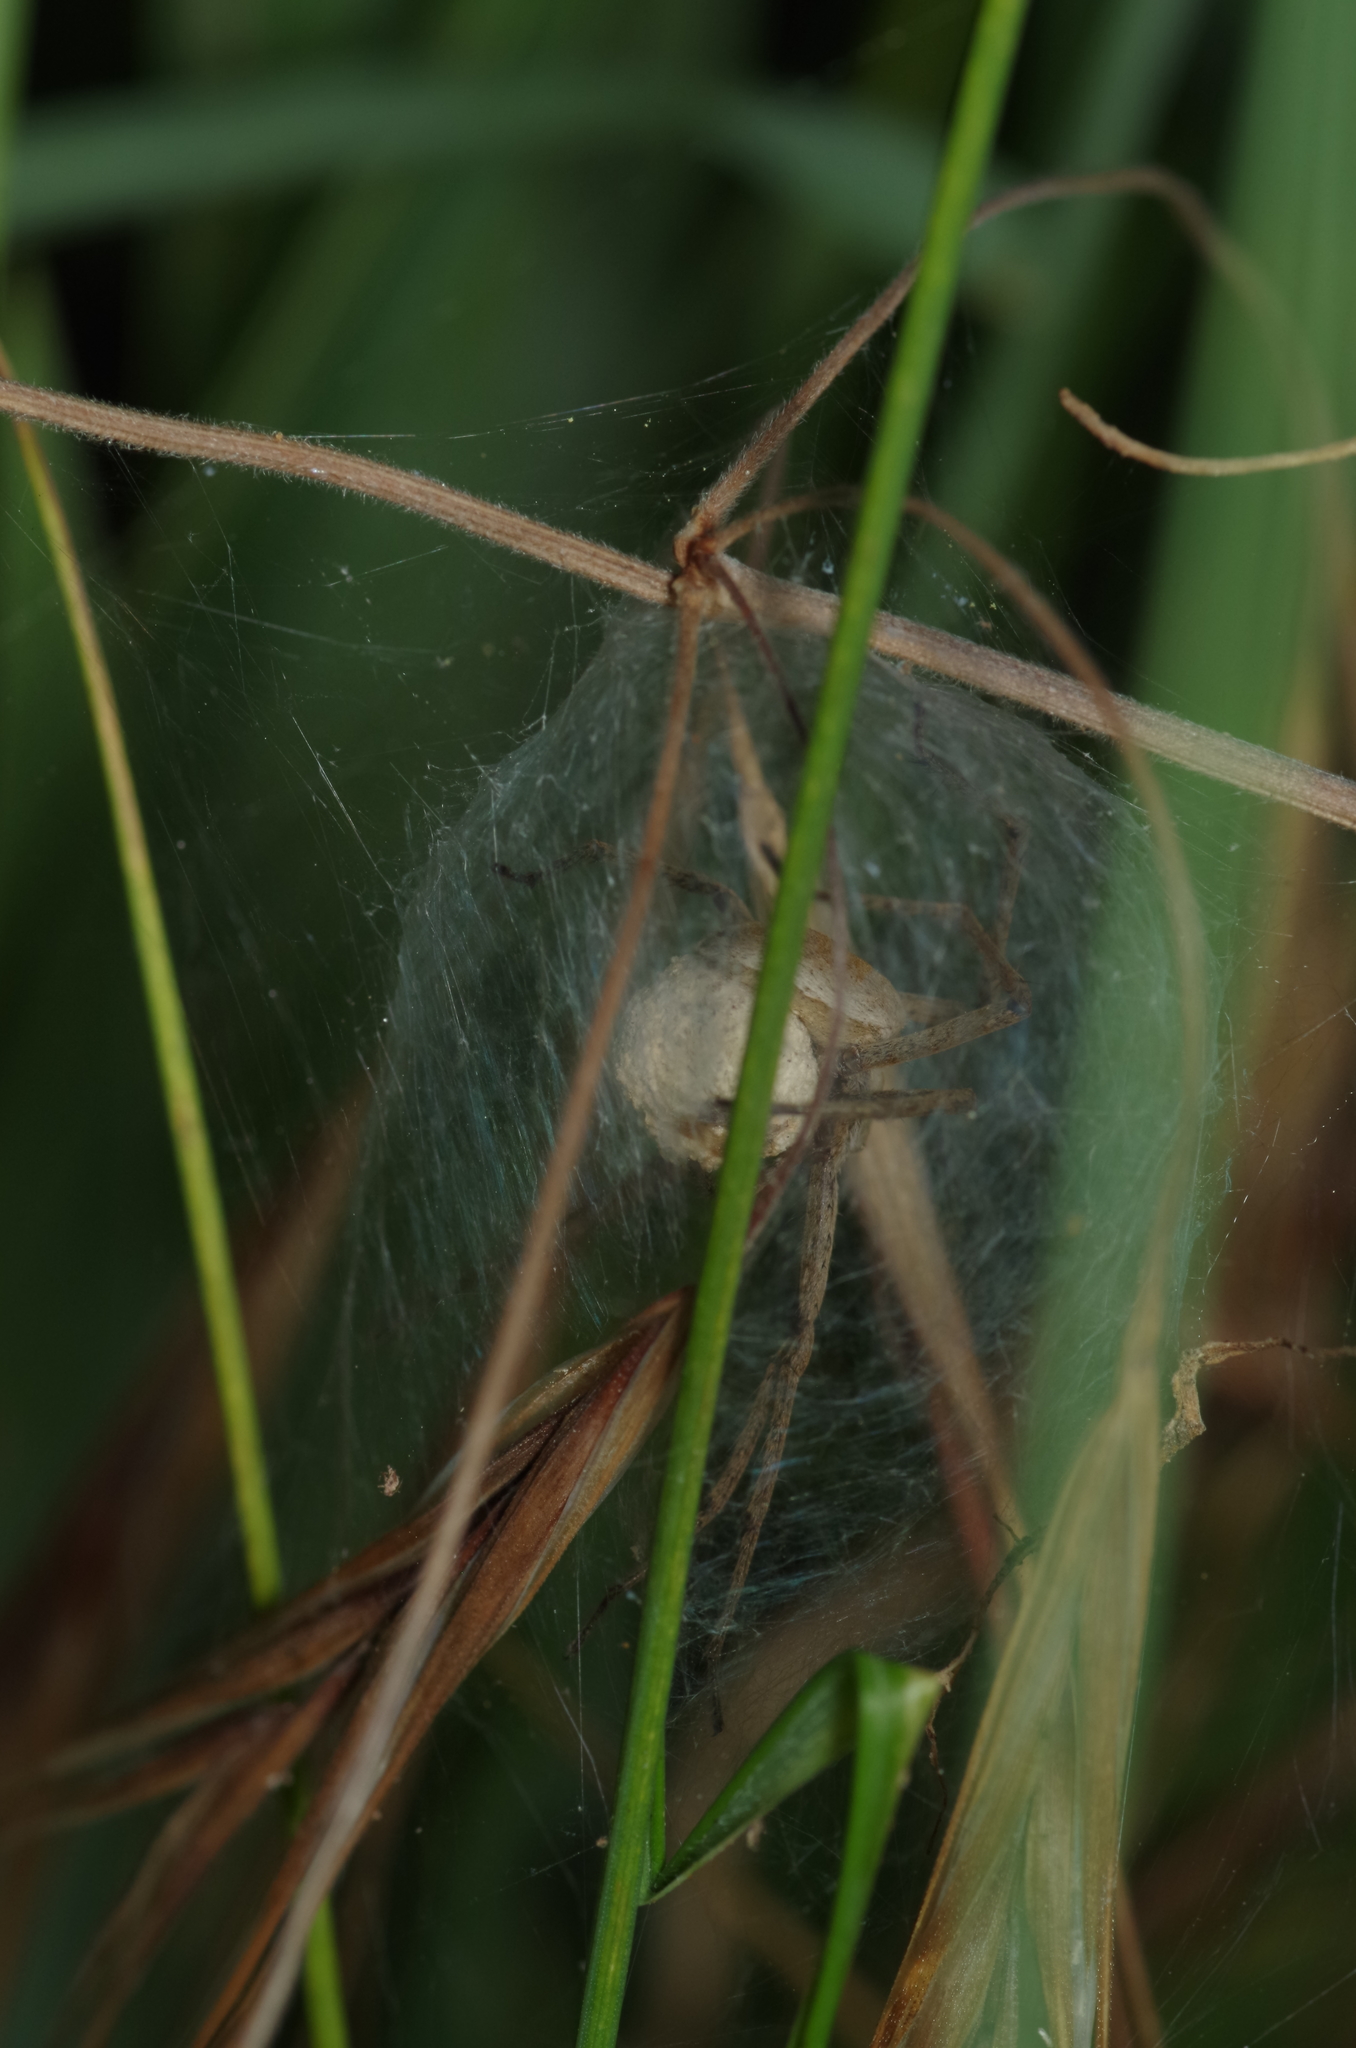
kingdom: Animalia
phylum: Arthropoda
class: Arachnida
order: Araneae
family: Pisauridae
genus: Pisaura
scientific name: Pisaura mirabilis
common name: Tent spider
